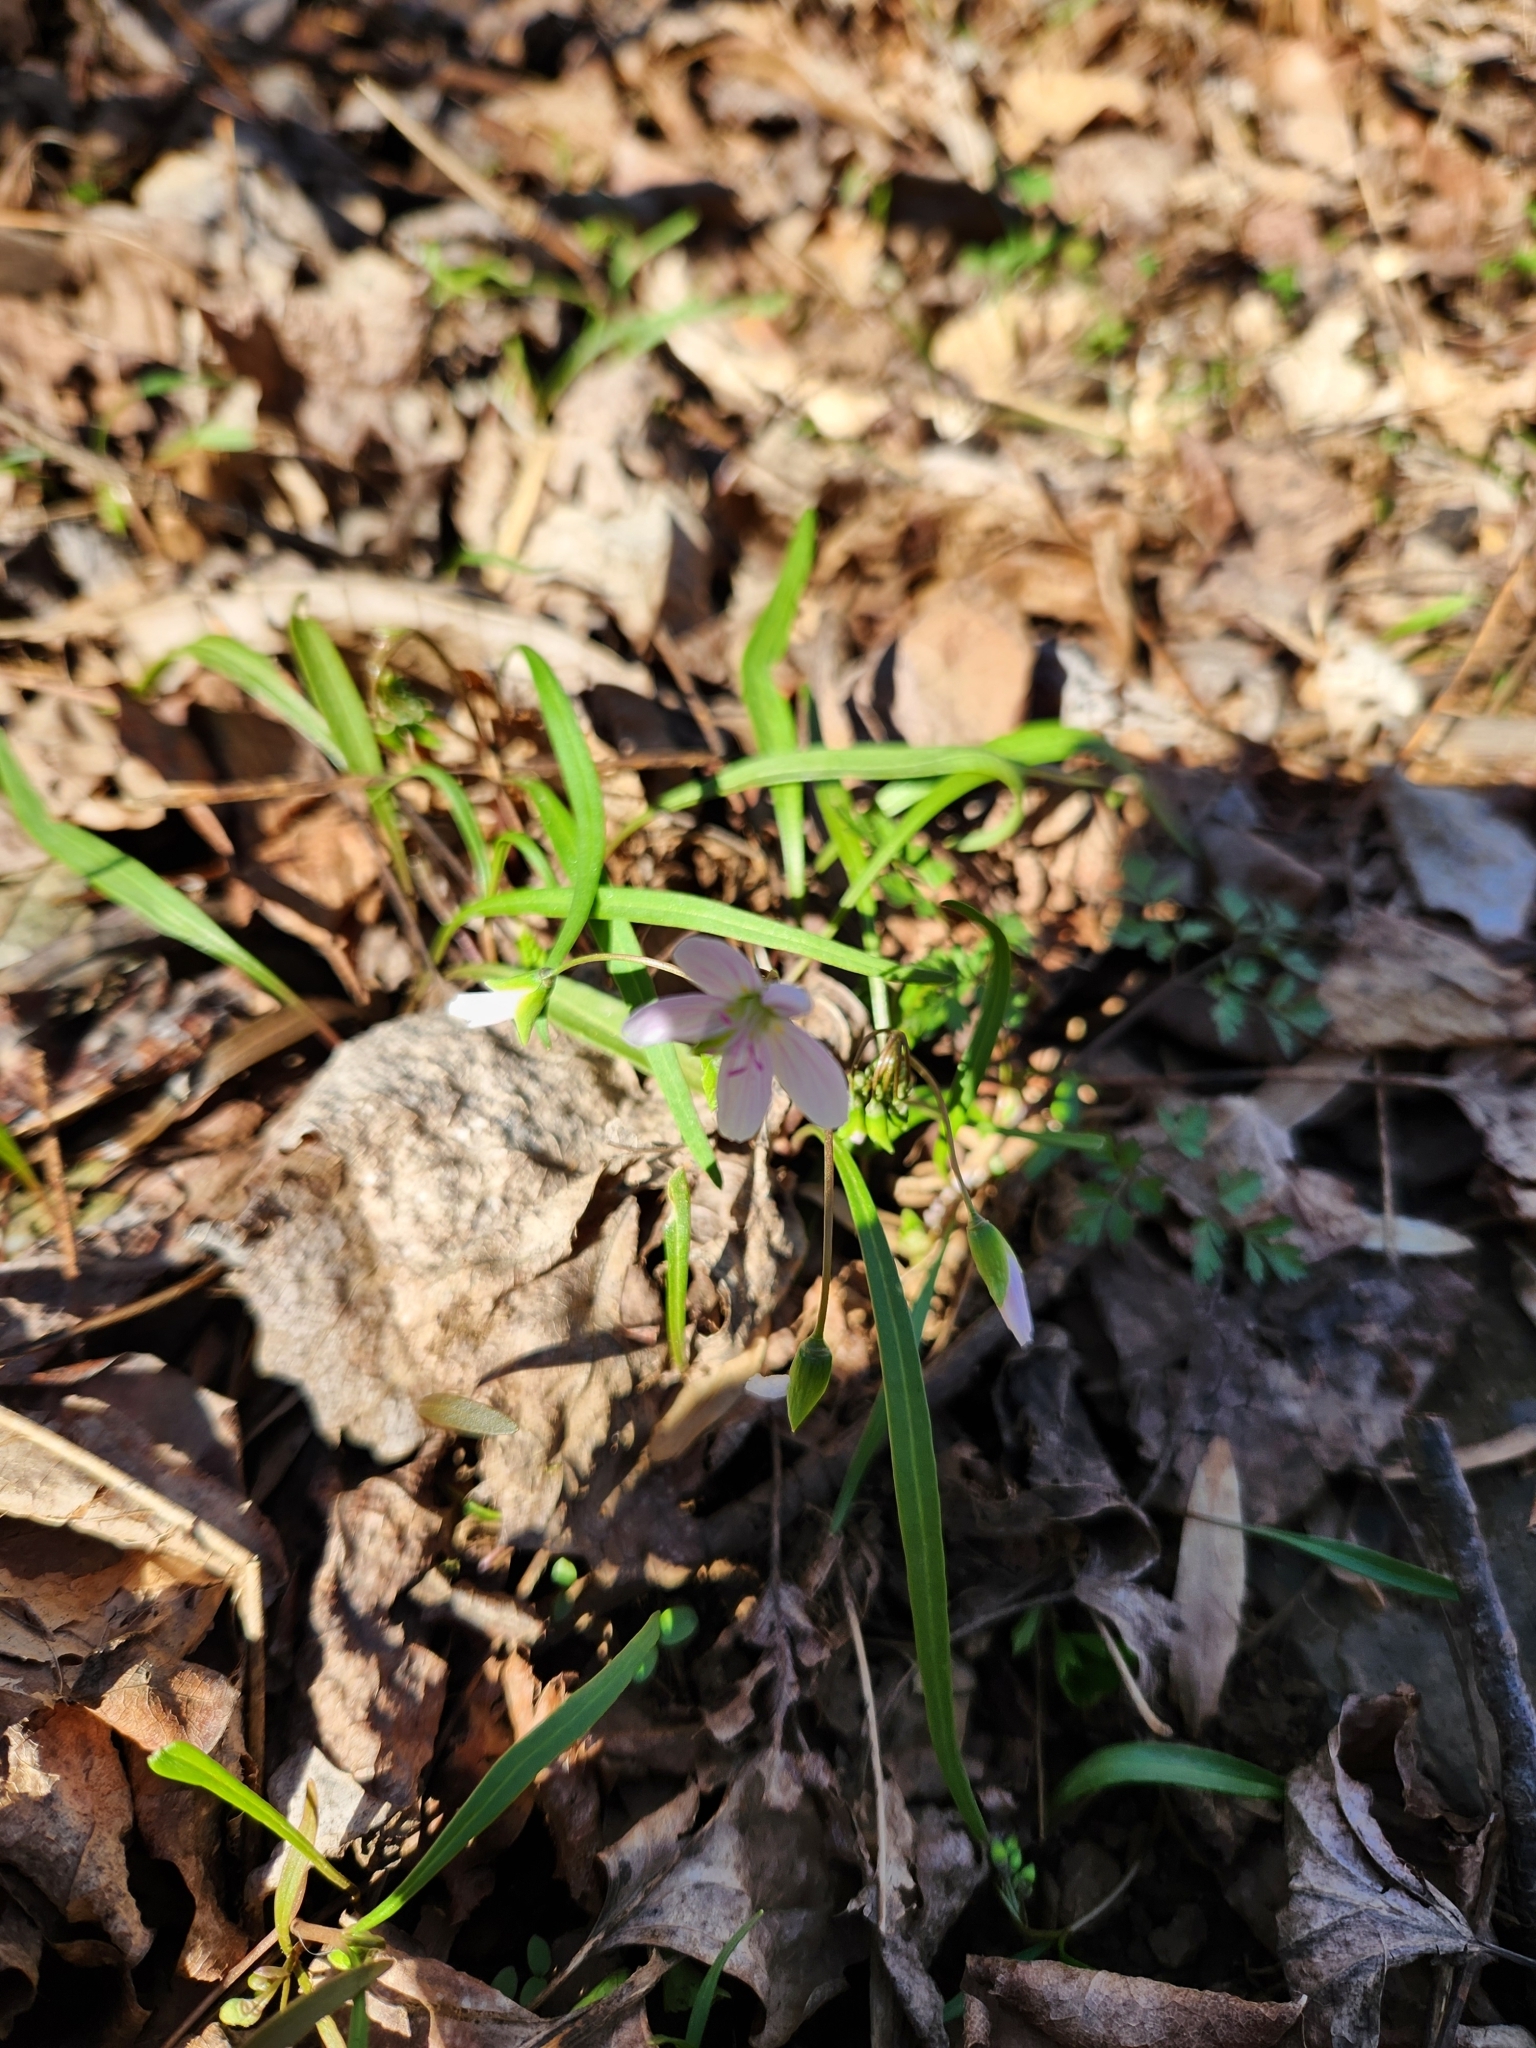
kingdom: Plantae
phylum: Tracheophyta
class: Magnoliopsida
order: Caryophyllales
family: Montiaceae
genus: Claytonia
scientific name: Claytonia virginica
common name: Virginia springbeauty
